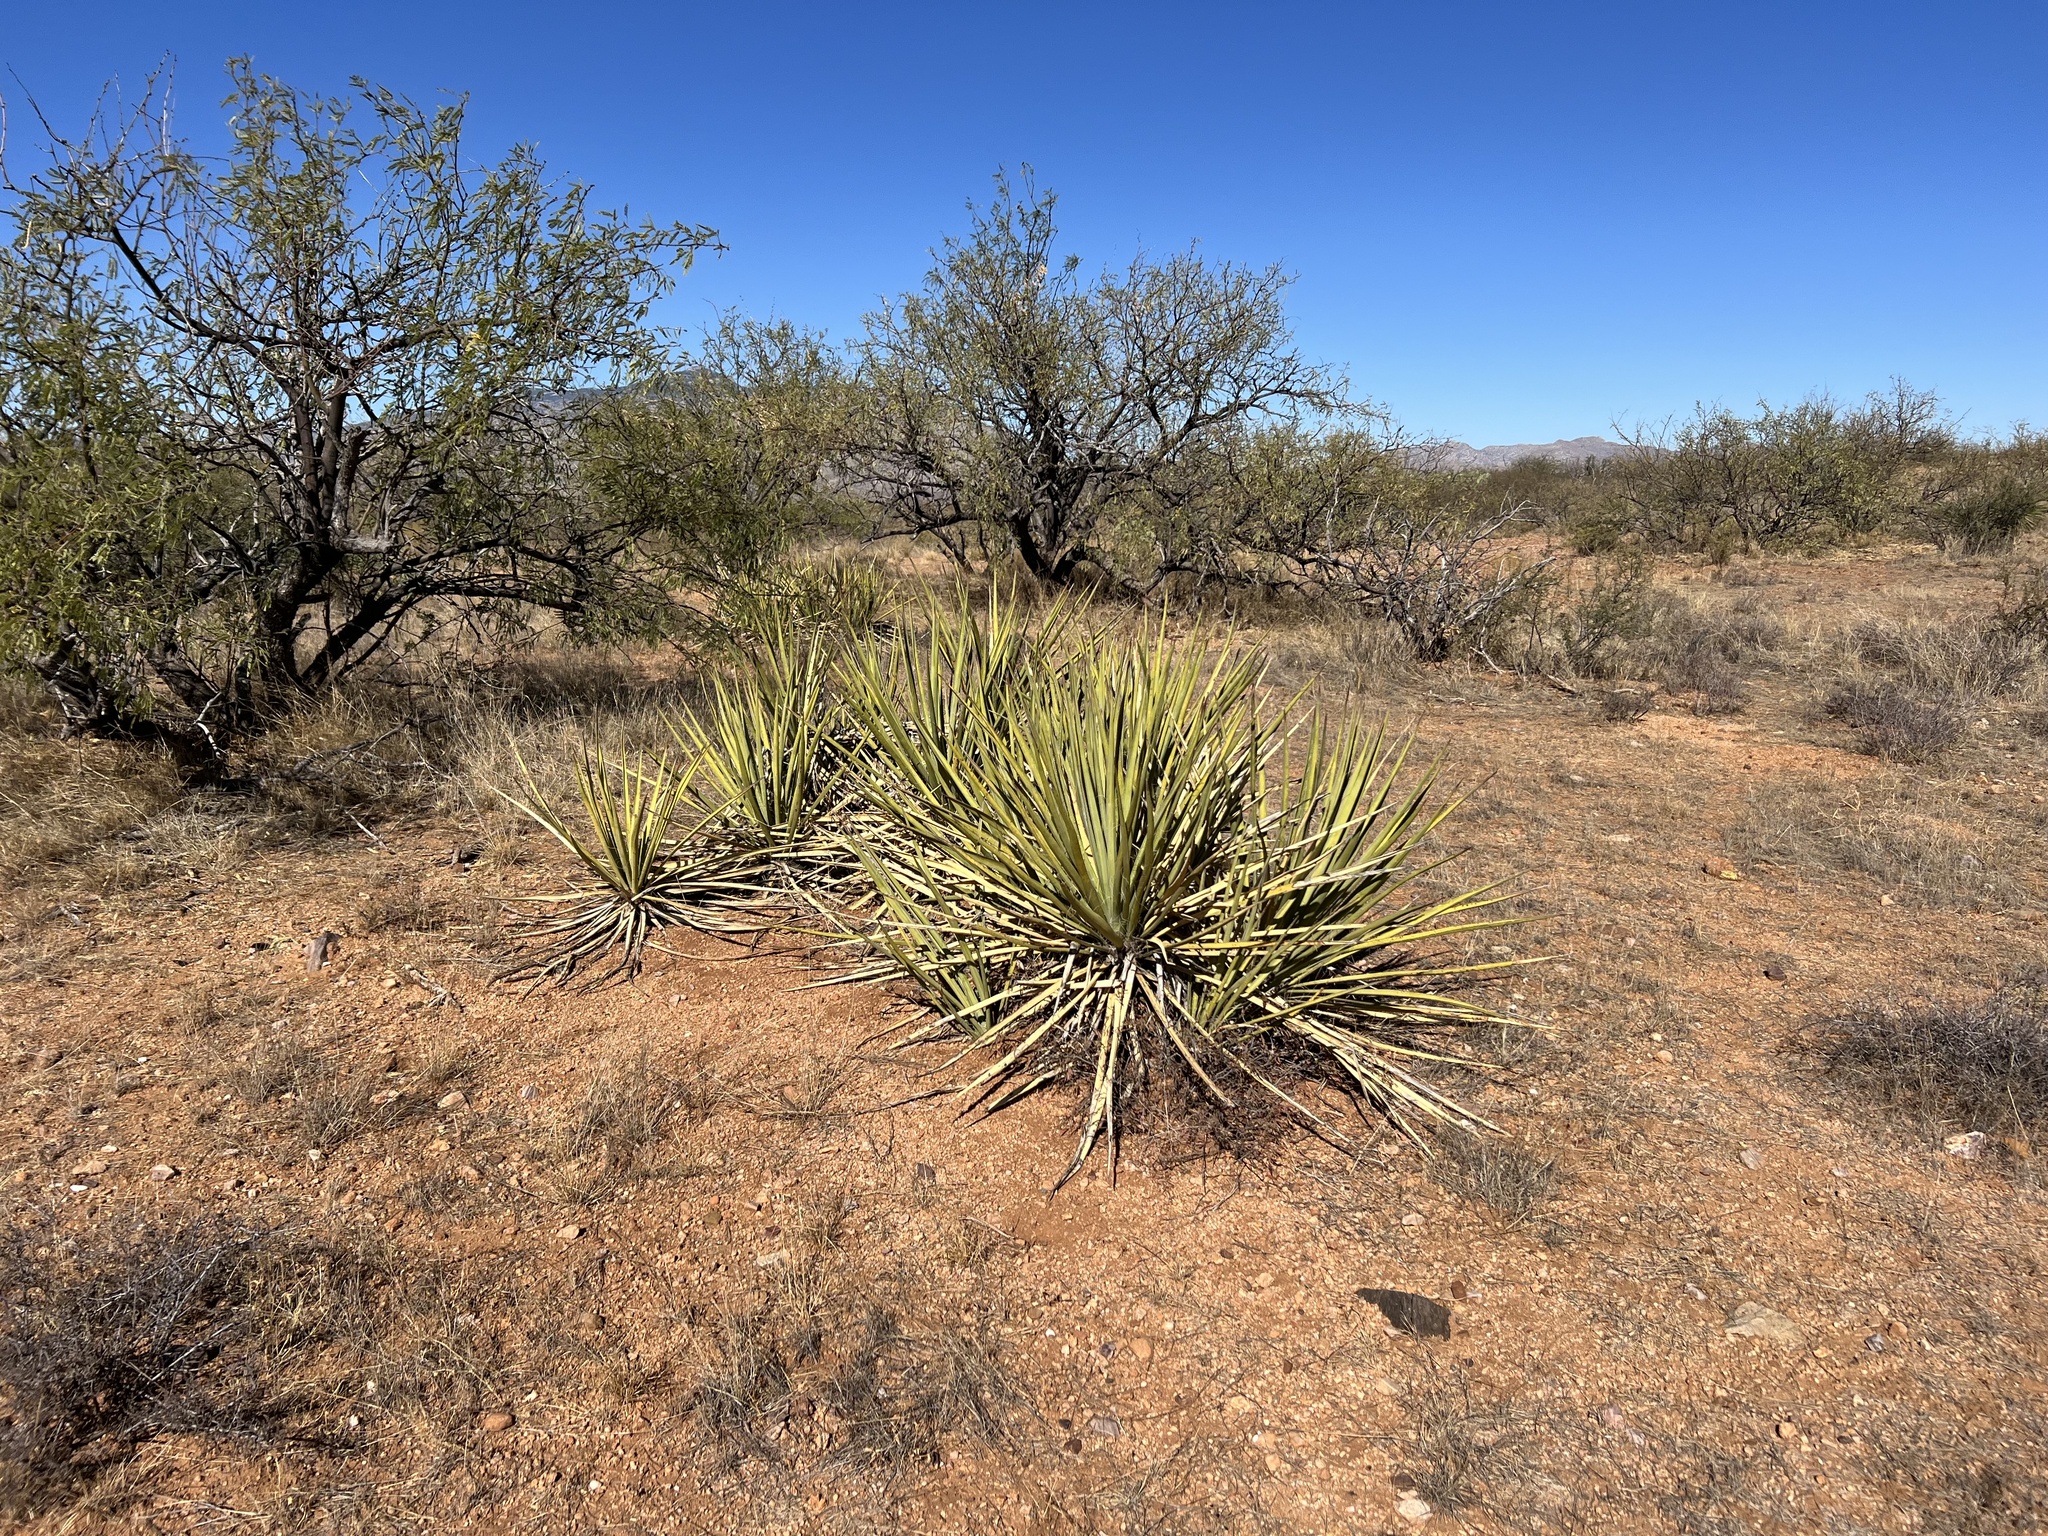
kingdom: Plantae
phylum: Tracheophyta
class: Liliopsida
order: Asparagales
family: Asparagaceae
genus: Yucca
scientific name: Yucca baccata
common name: Banana yucca
